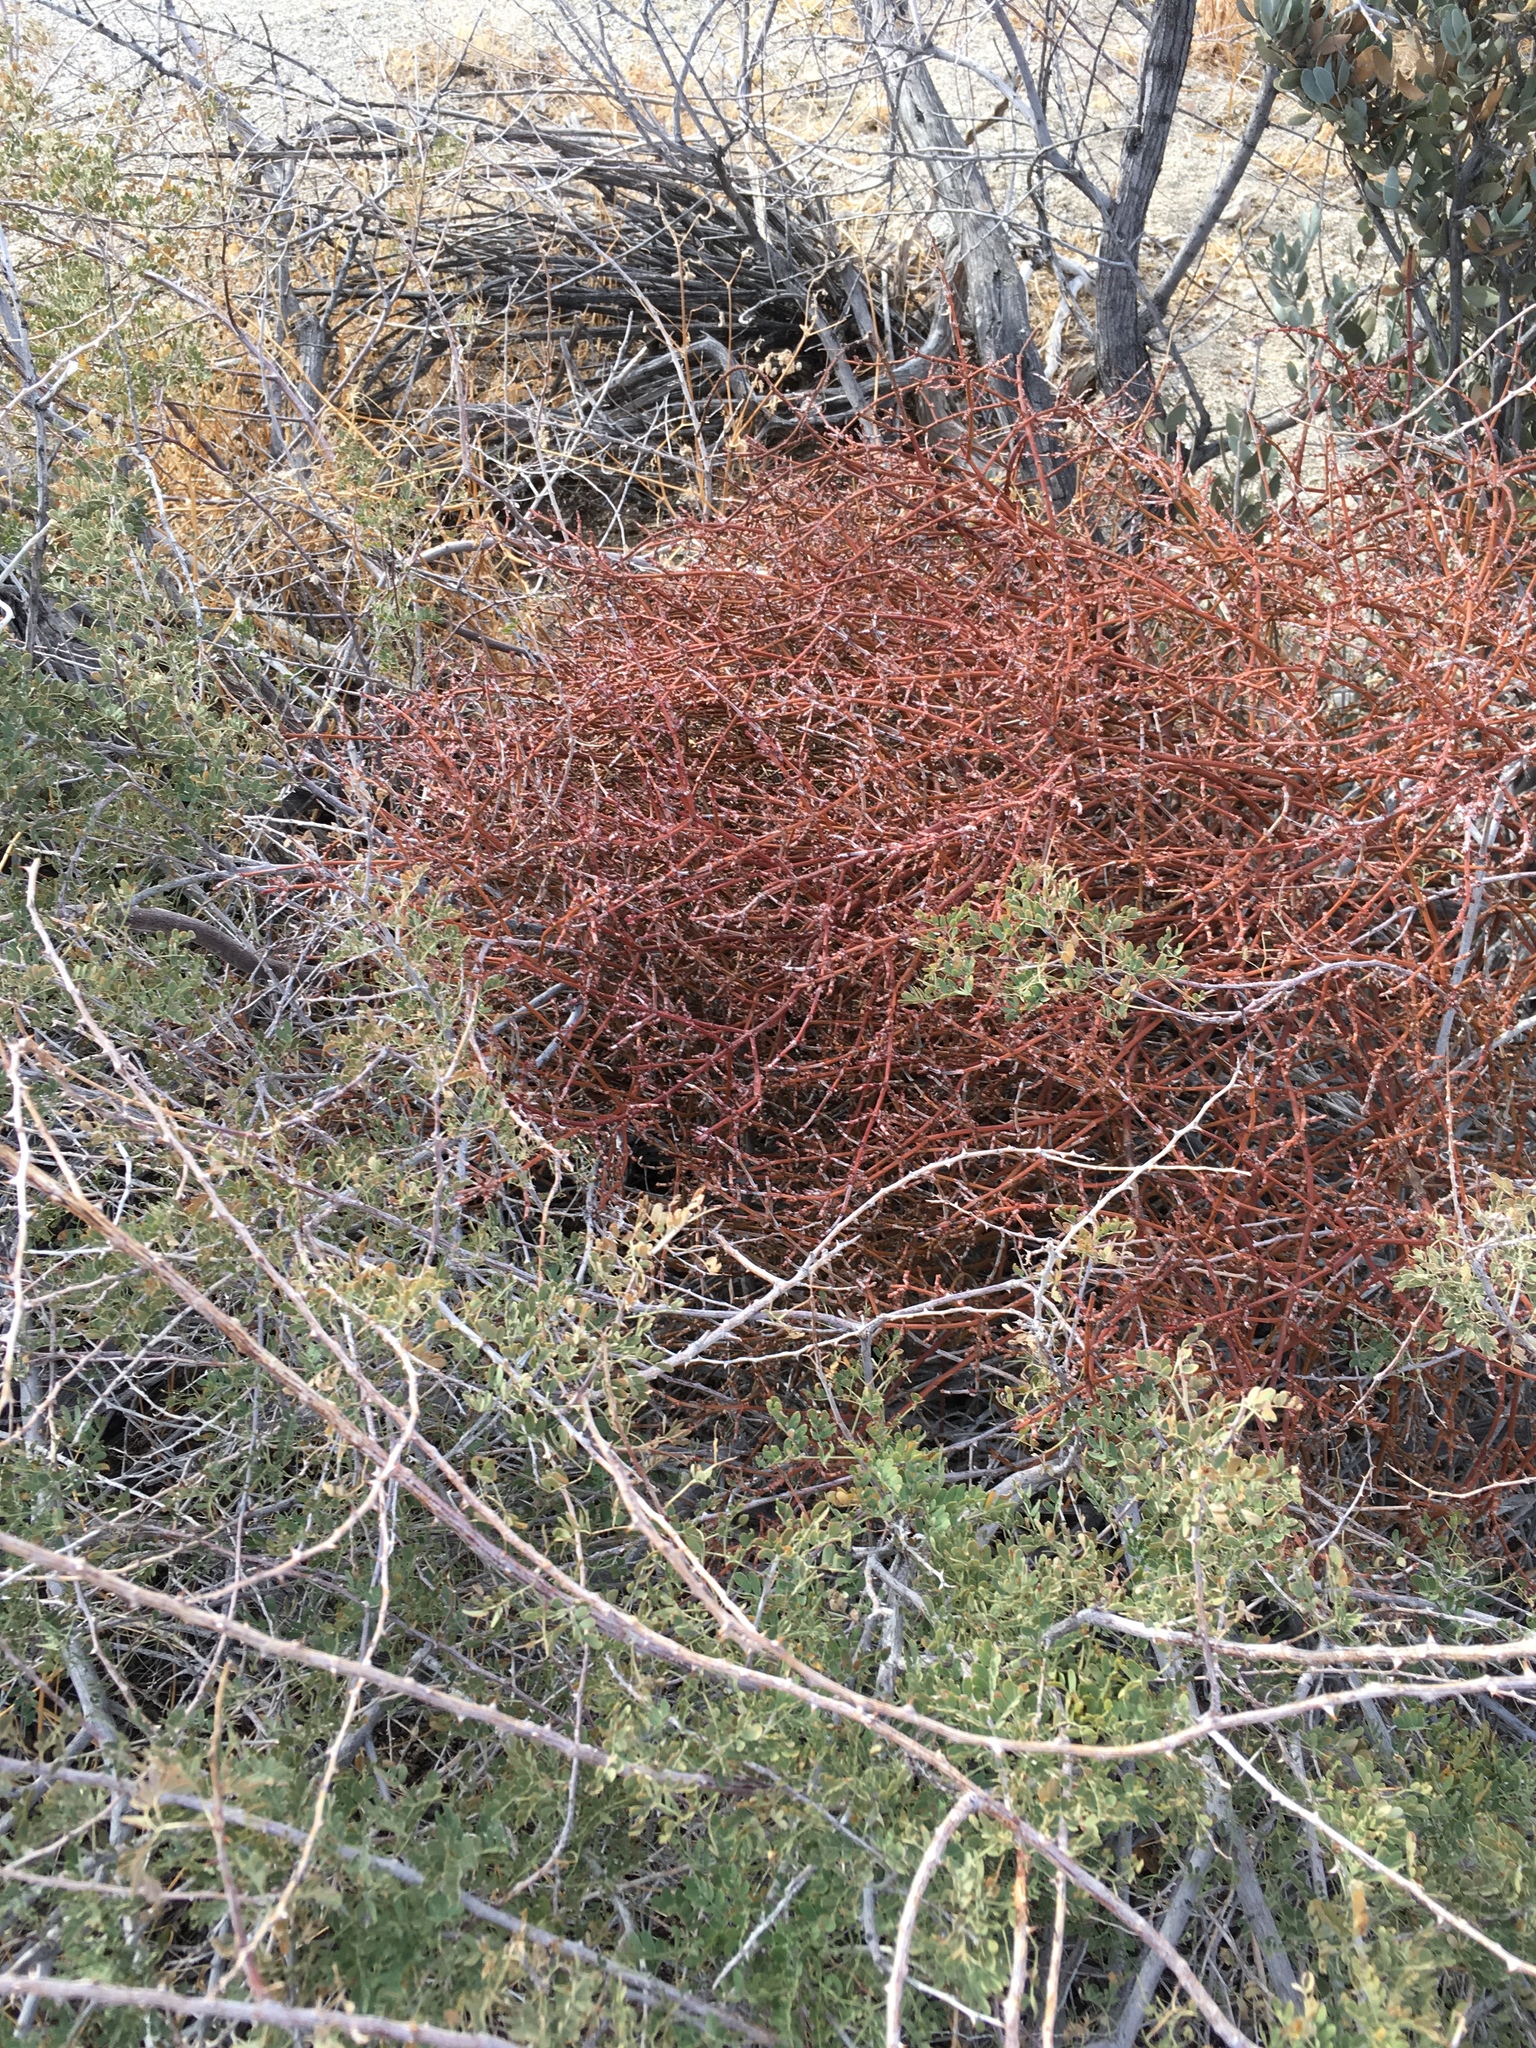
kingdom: Plantae
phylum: Tracheophyta
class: Magnoliopsida
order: Santalales
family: Viscaceae
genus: Phoradendron
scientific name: Phoradendron californicum
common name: Acacia mistletoe
